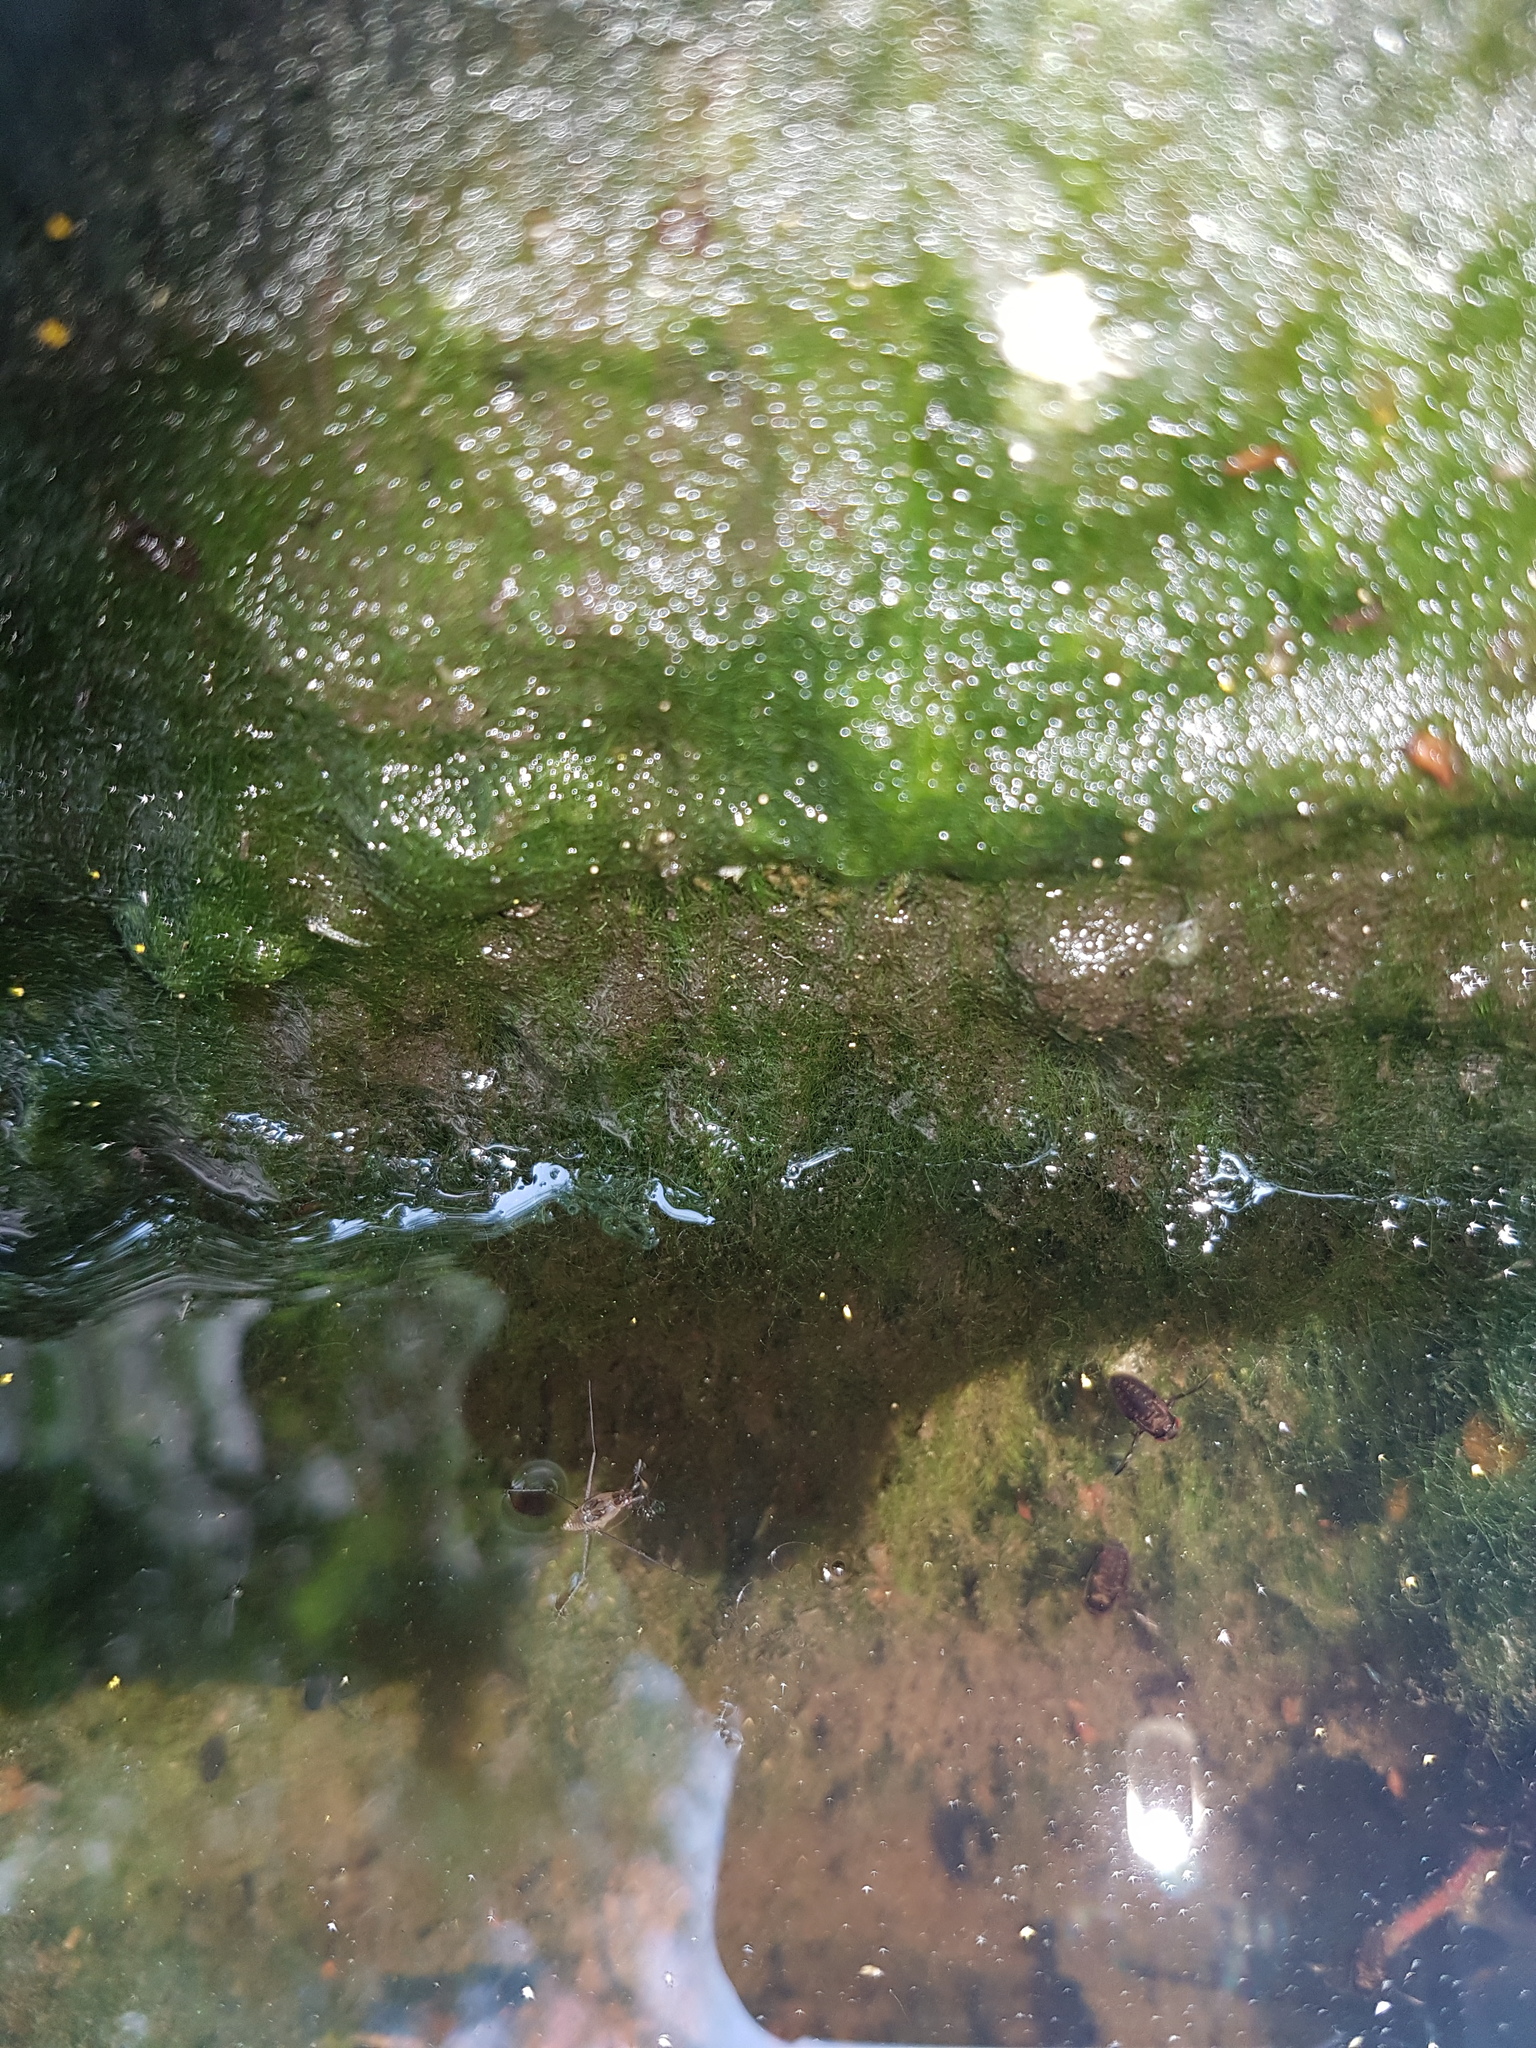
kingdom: Animalia
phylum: Arthropoda
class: Insecta
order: Hemiptera
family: Gerridae
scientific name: Gerridae
